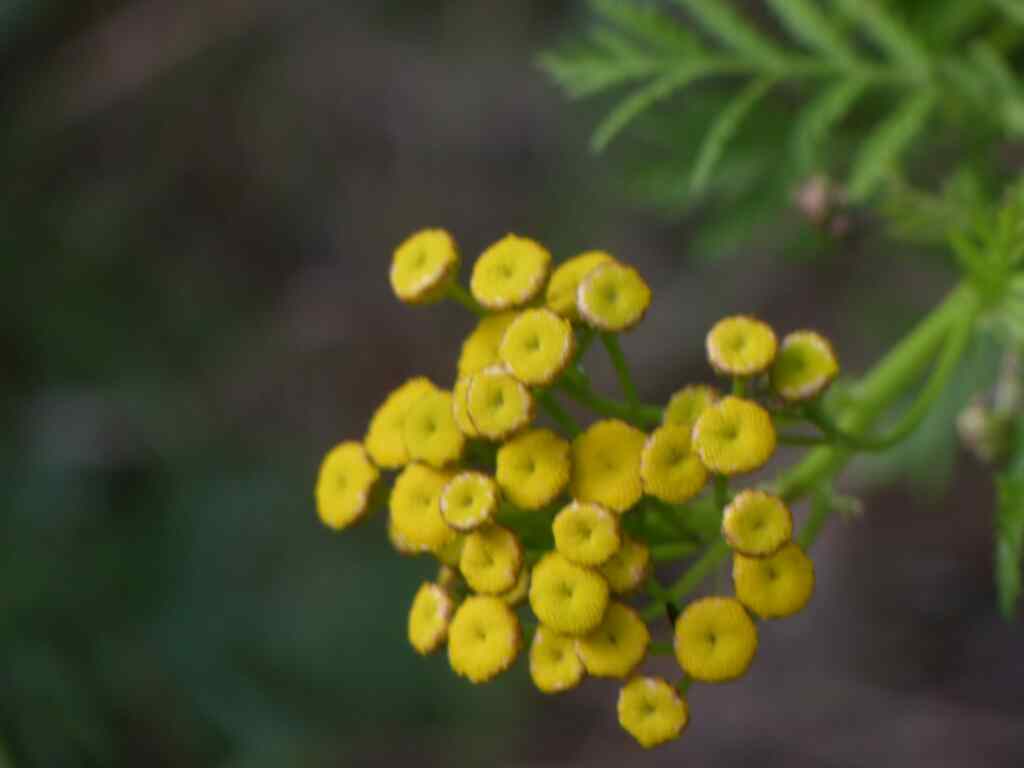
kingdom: Plantae
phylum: Tracheophyta
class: Magnoliopsida
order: Asterales
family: Asteraceae
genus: Tanacetum
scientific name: Tanacetum vulgare
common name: Common tansy
